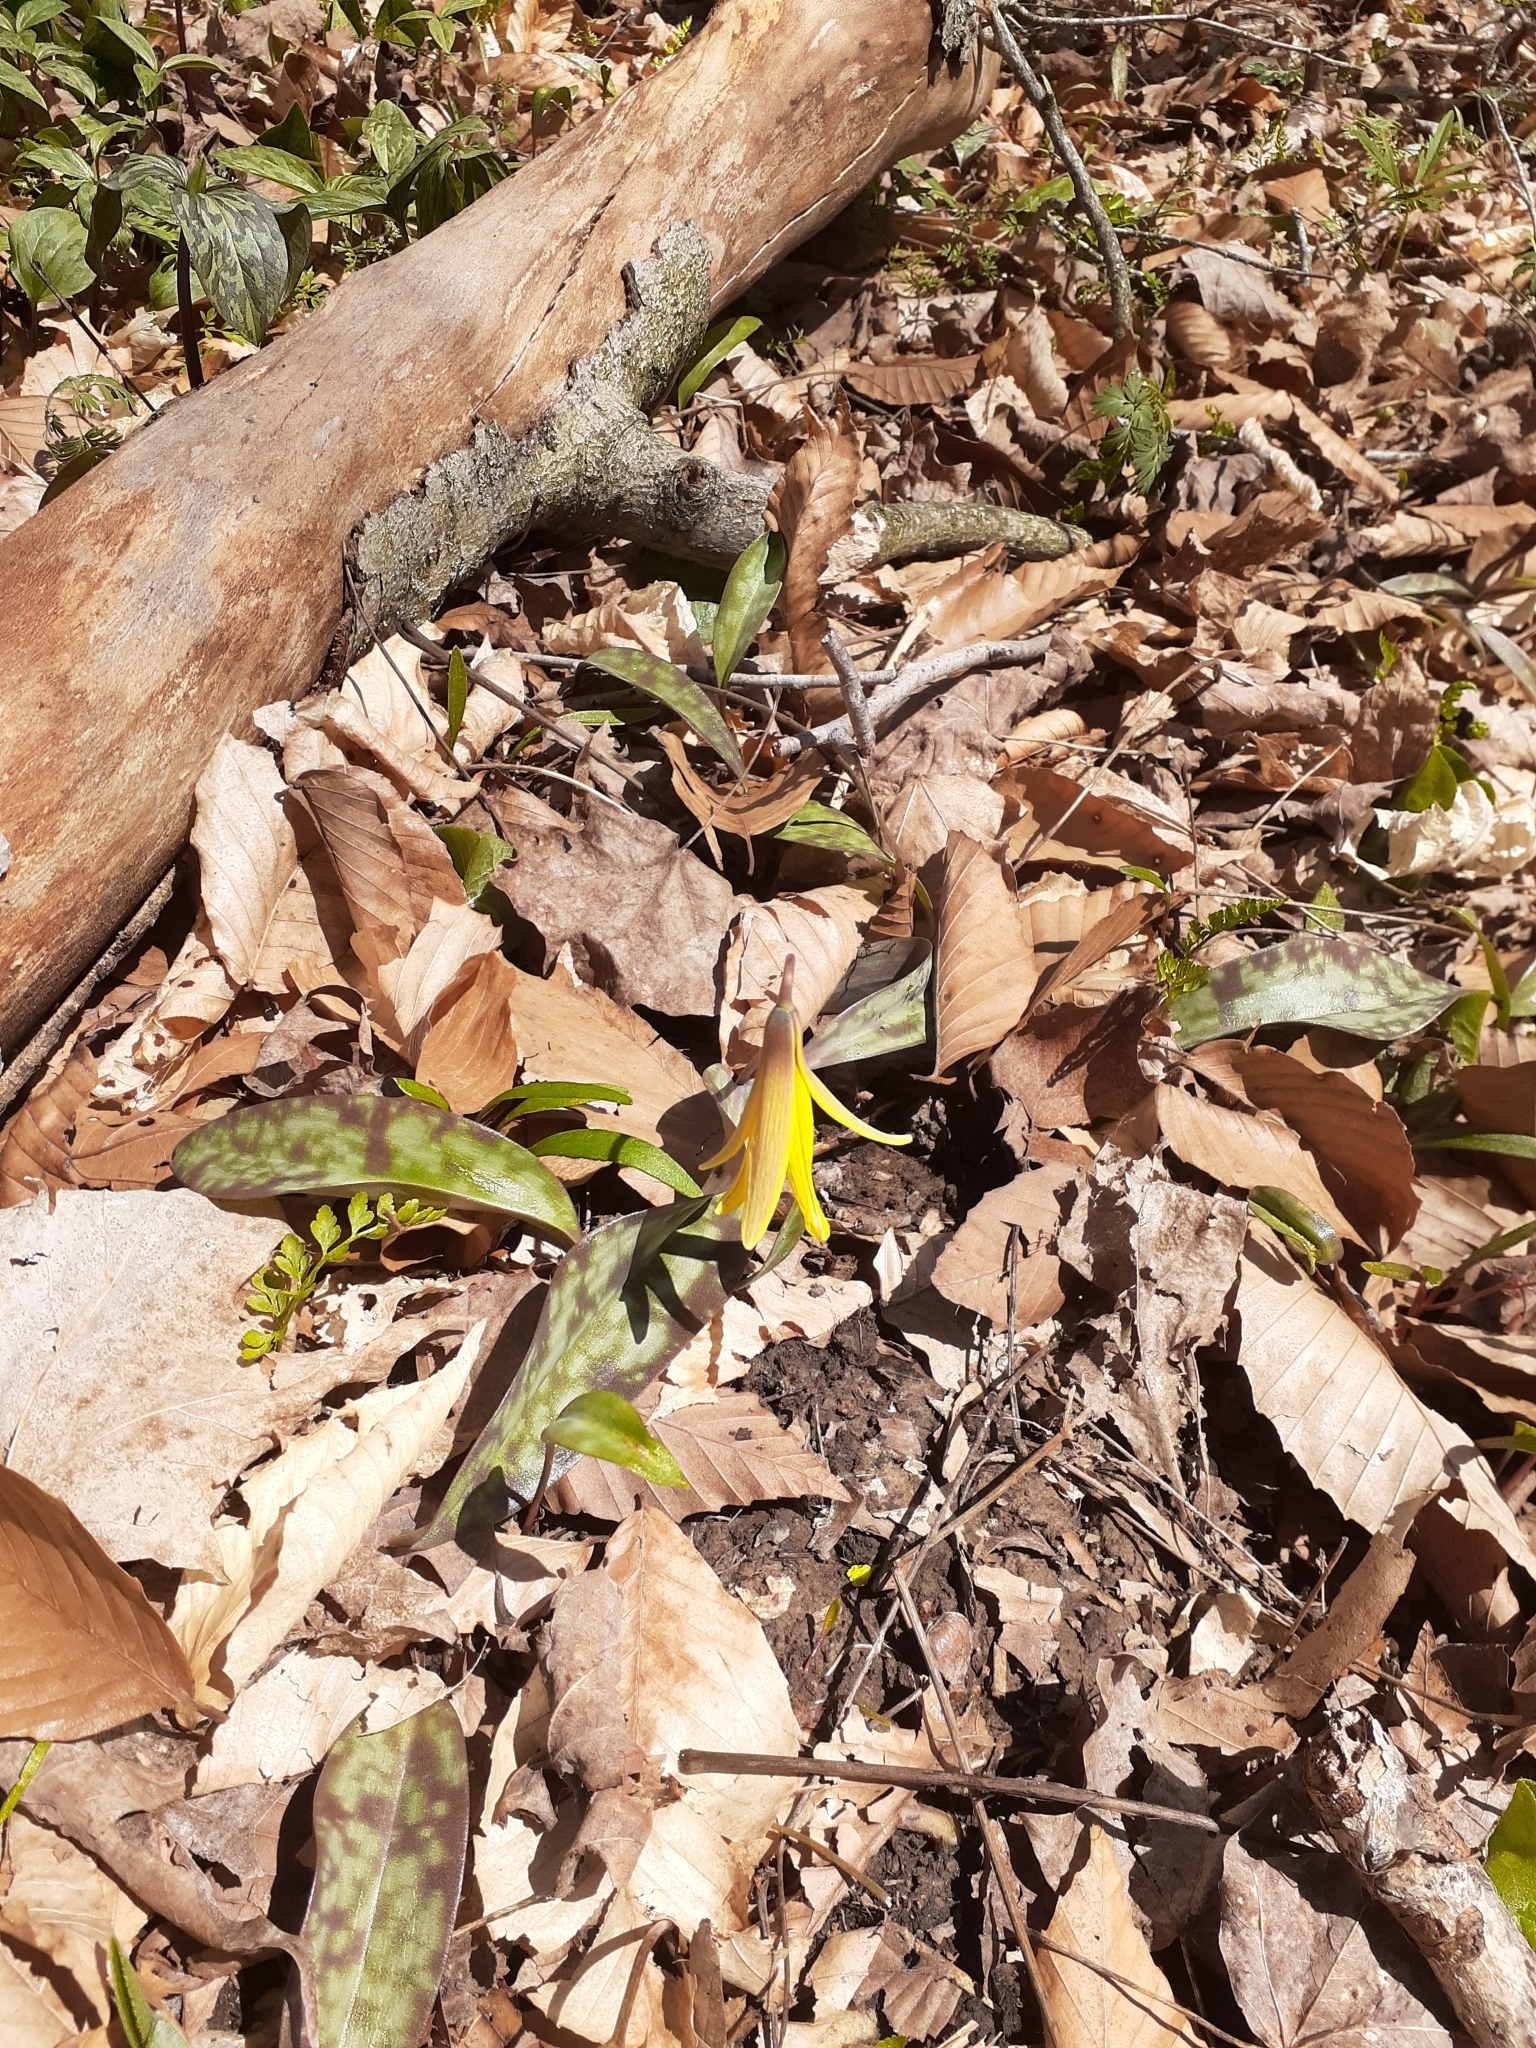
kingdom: Plantae
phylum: Tracheophyta
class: Liliopsida
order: Liliales
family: Liliaceae
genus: Erythronium
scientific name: Erythronium americanum
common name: Yellow adder's-tongue
